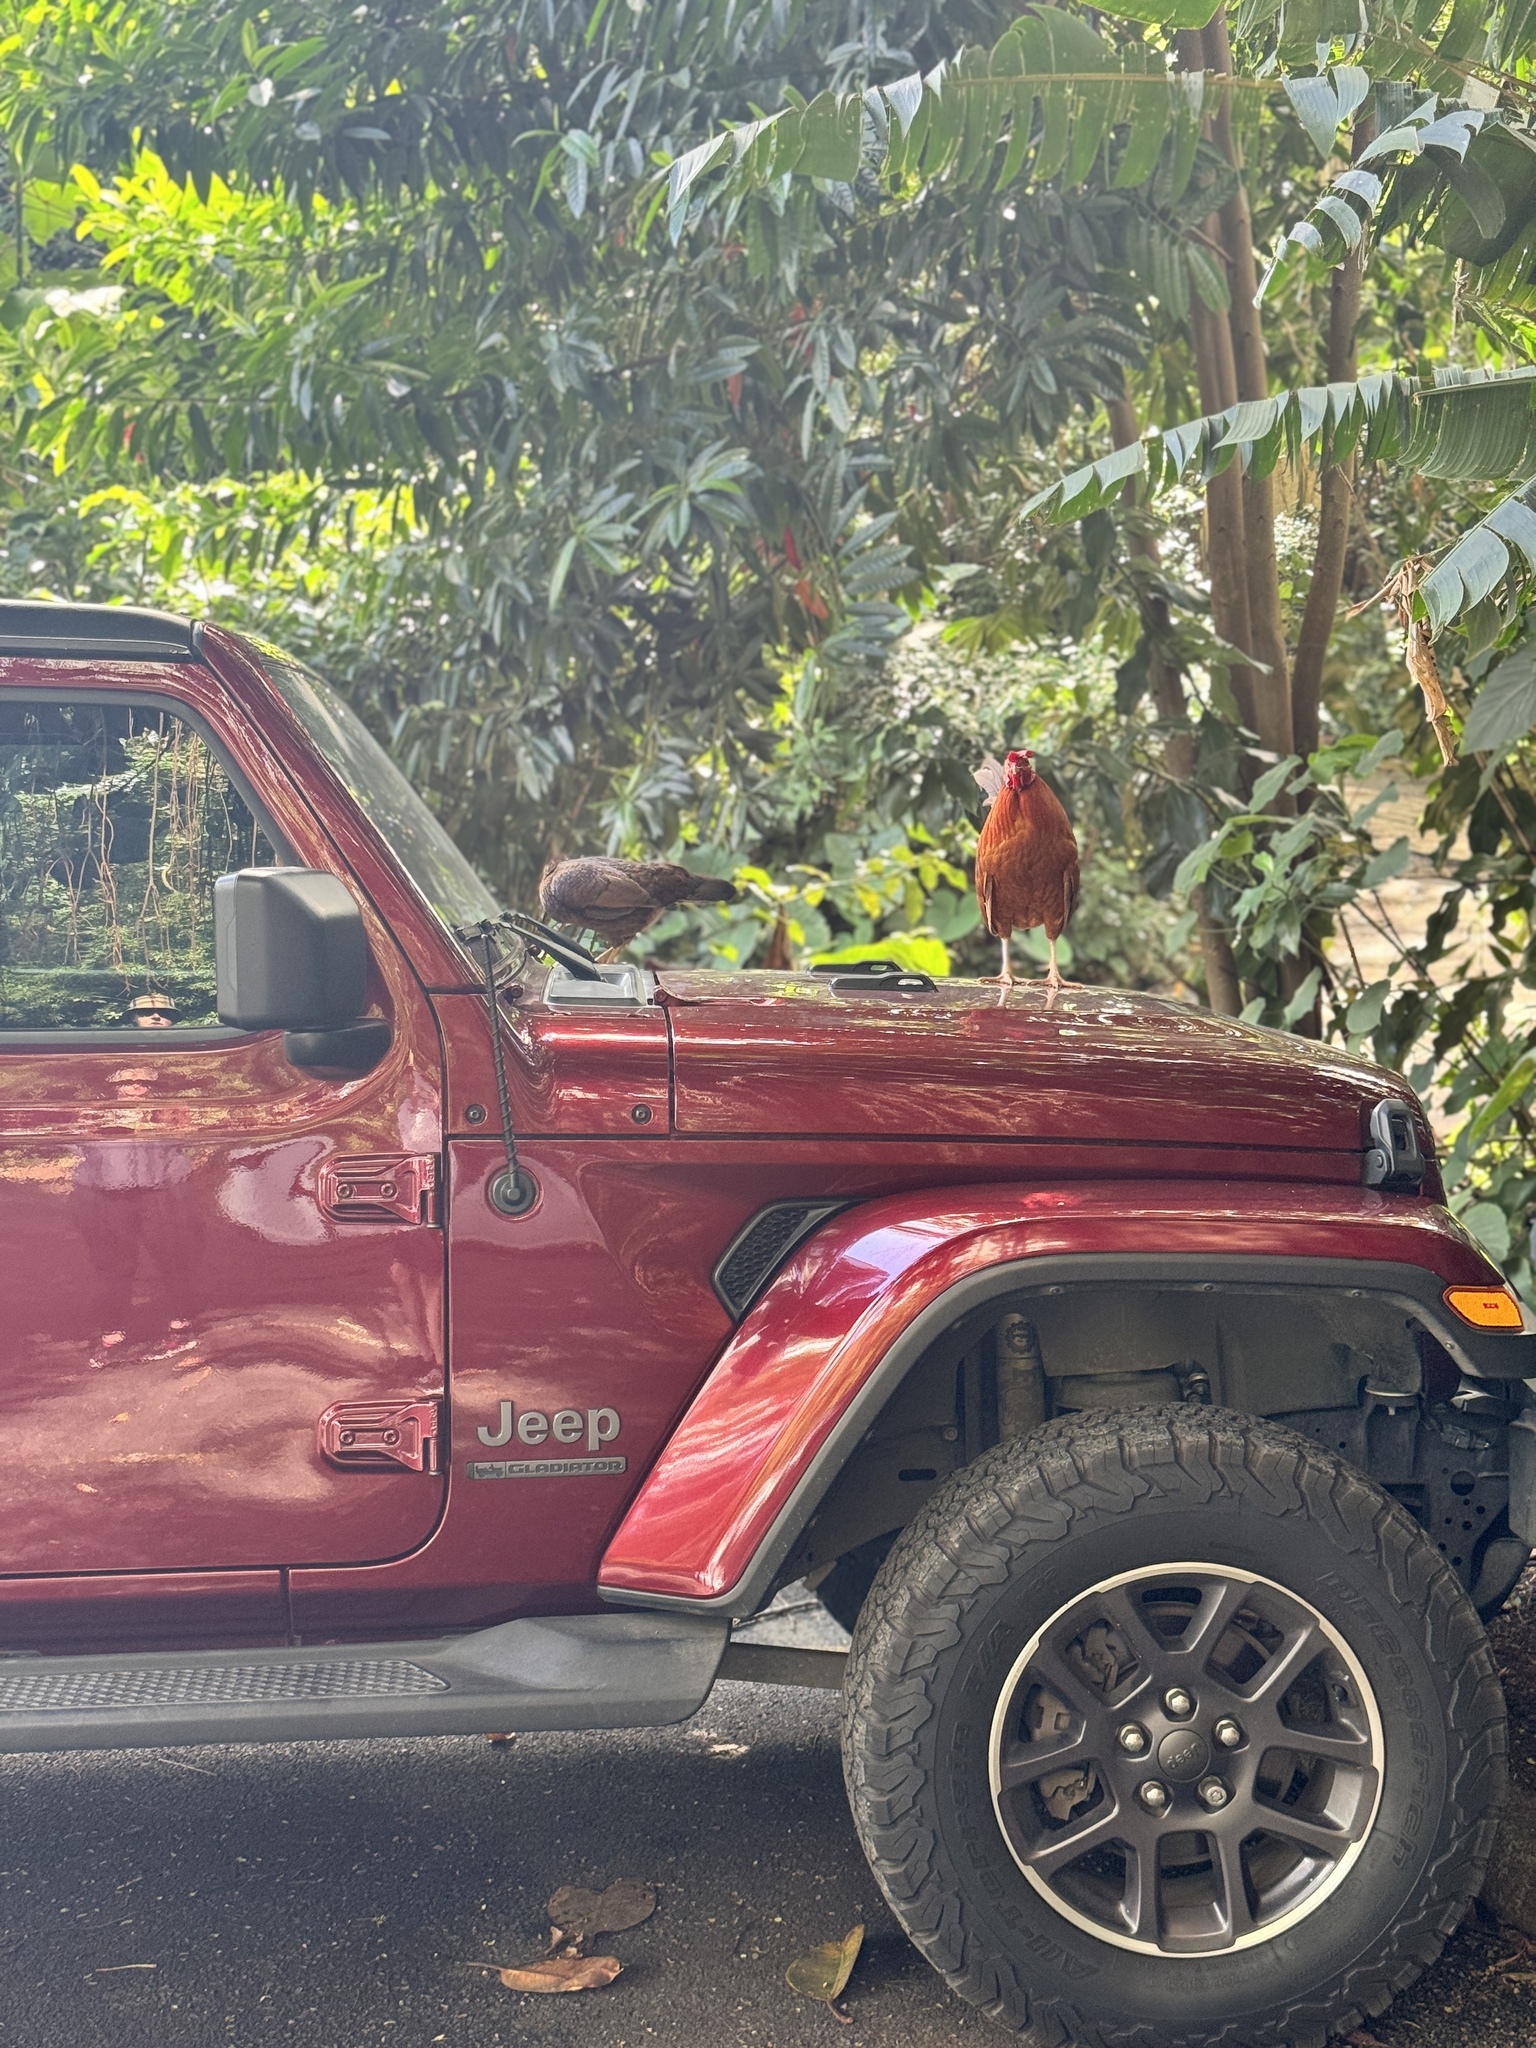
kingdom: Animalia
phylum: Chordata
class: Aves
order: Galliformes
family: Phasianidae
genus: Gallus
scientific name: Gallus gallus
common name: Red junglefowl
